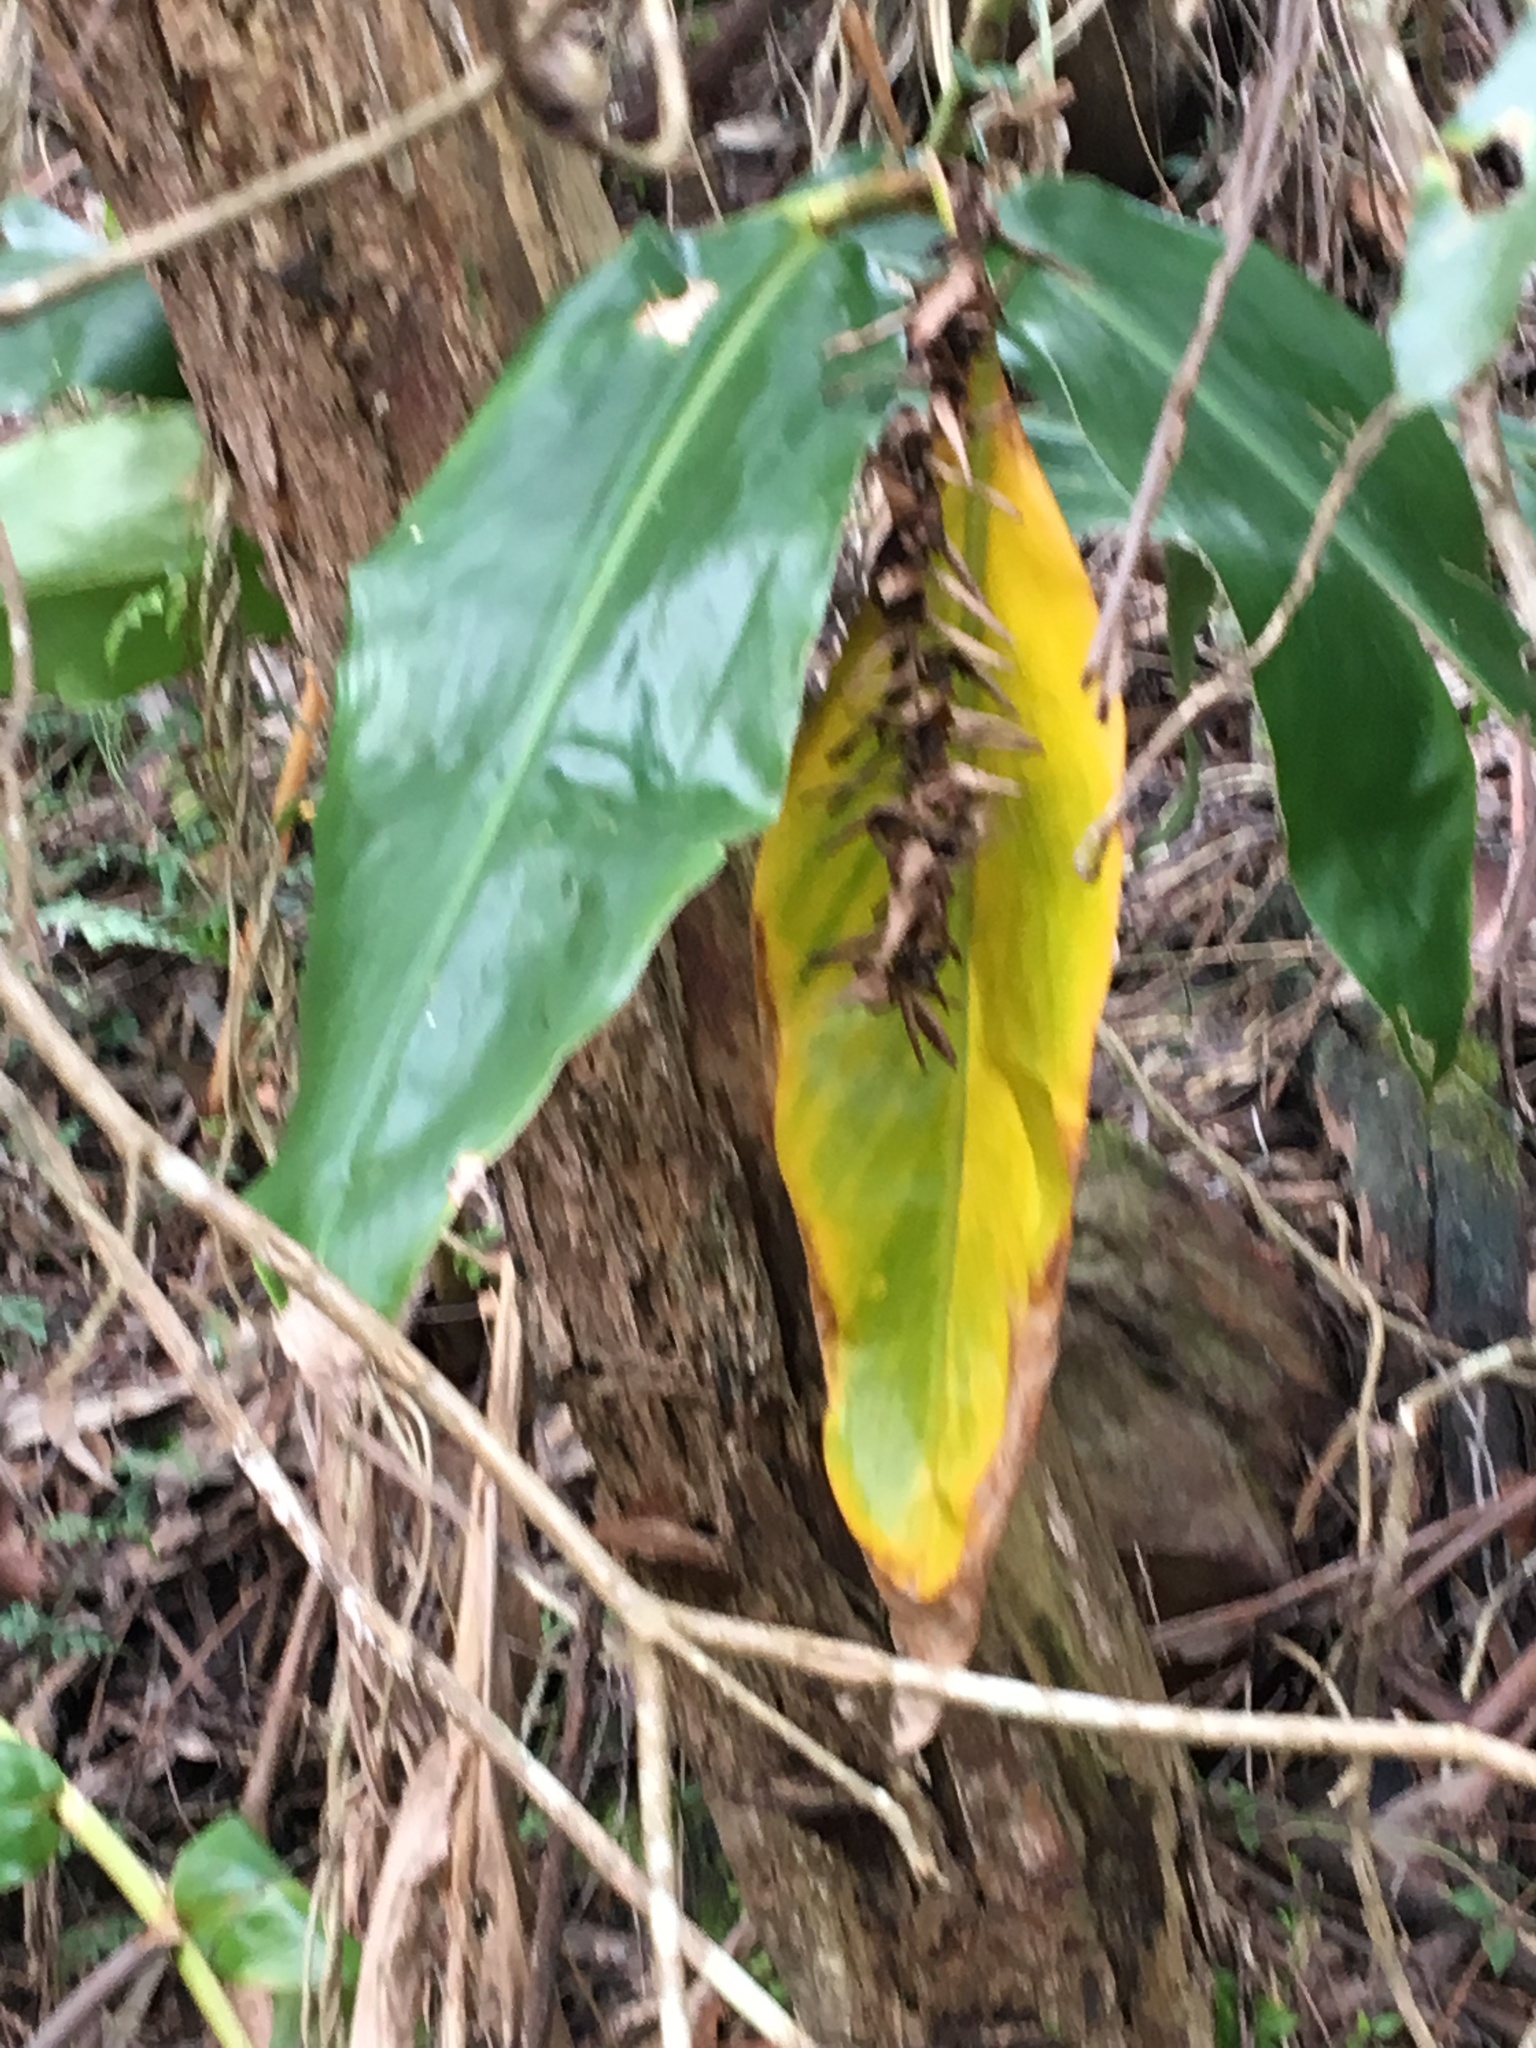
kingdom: Plantae
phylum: Tracheophyta
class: Liliopsida
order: Zingiberales
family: Zingiberaceae
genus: Hedychium
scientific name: Hedychium gardnerianum
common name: Himalayan ginger
